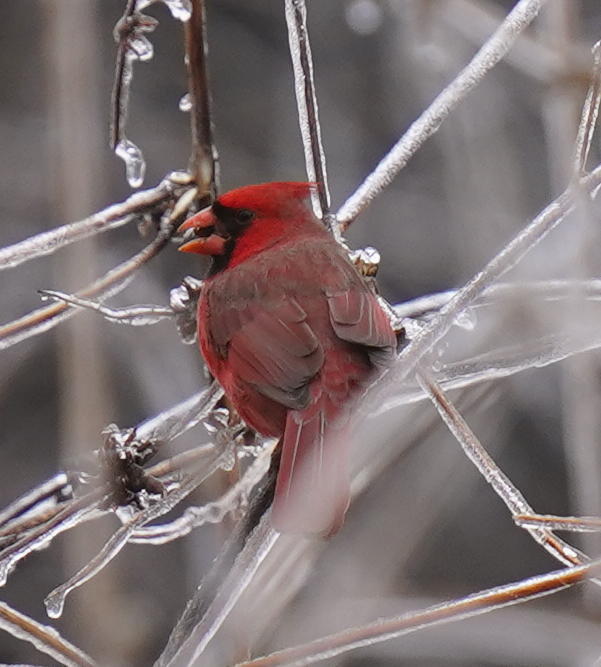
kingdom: Animalia
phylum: Chordata
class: Aves
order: Passeriformes
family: Cardinalidae
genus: Cardinalis
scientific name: Cardinalis cardinalis
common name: Northern cardinal
